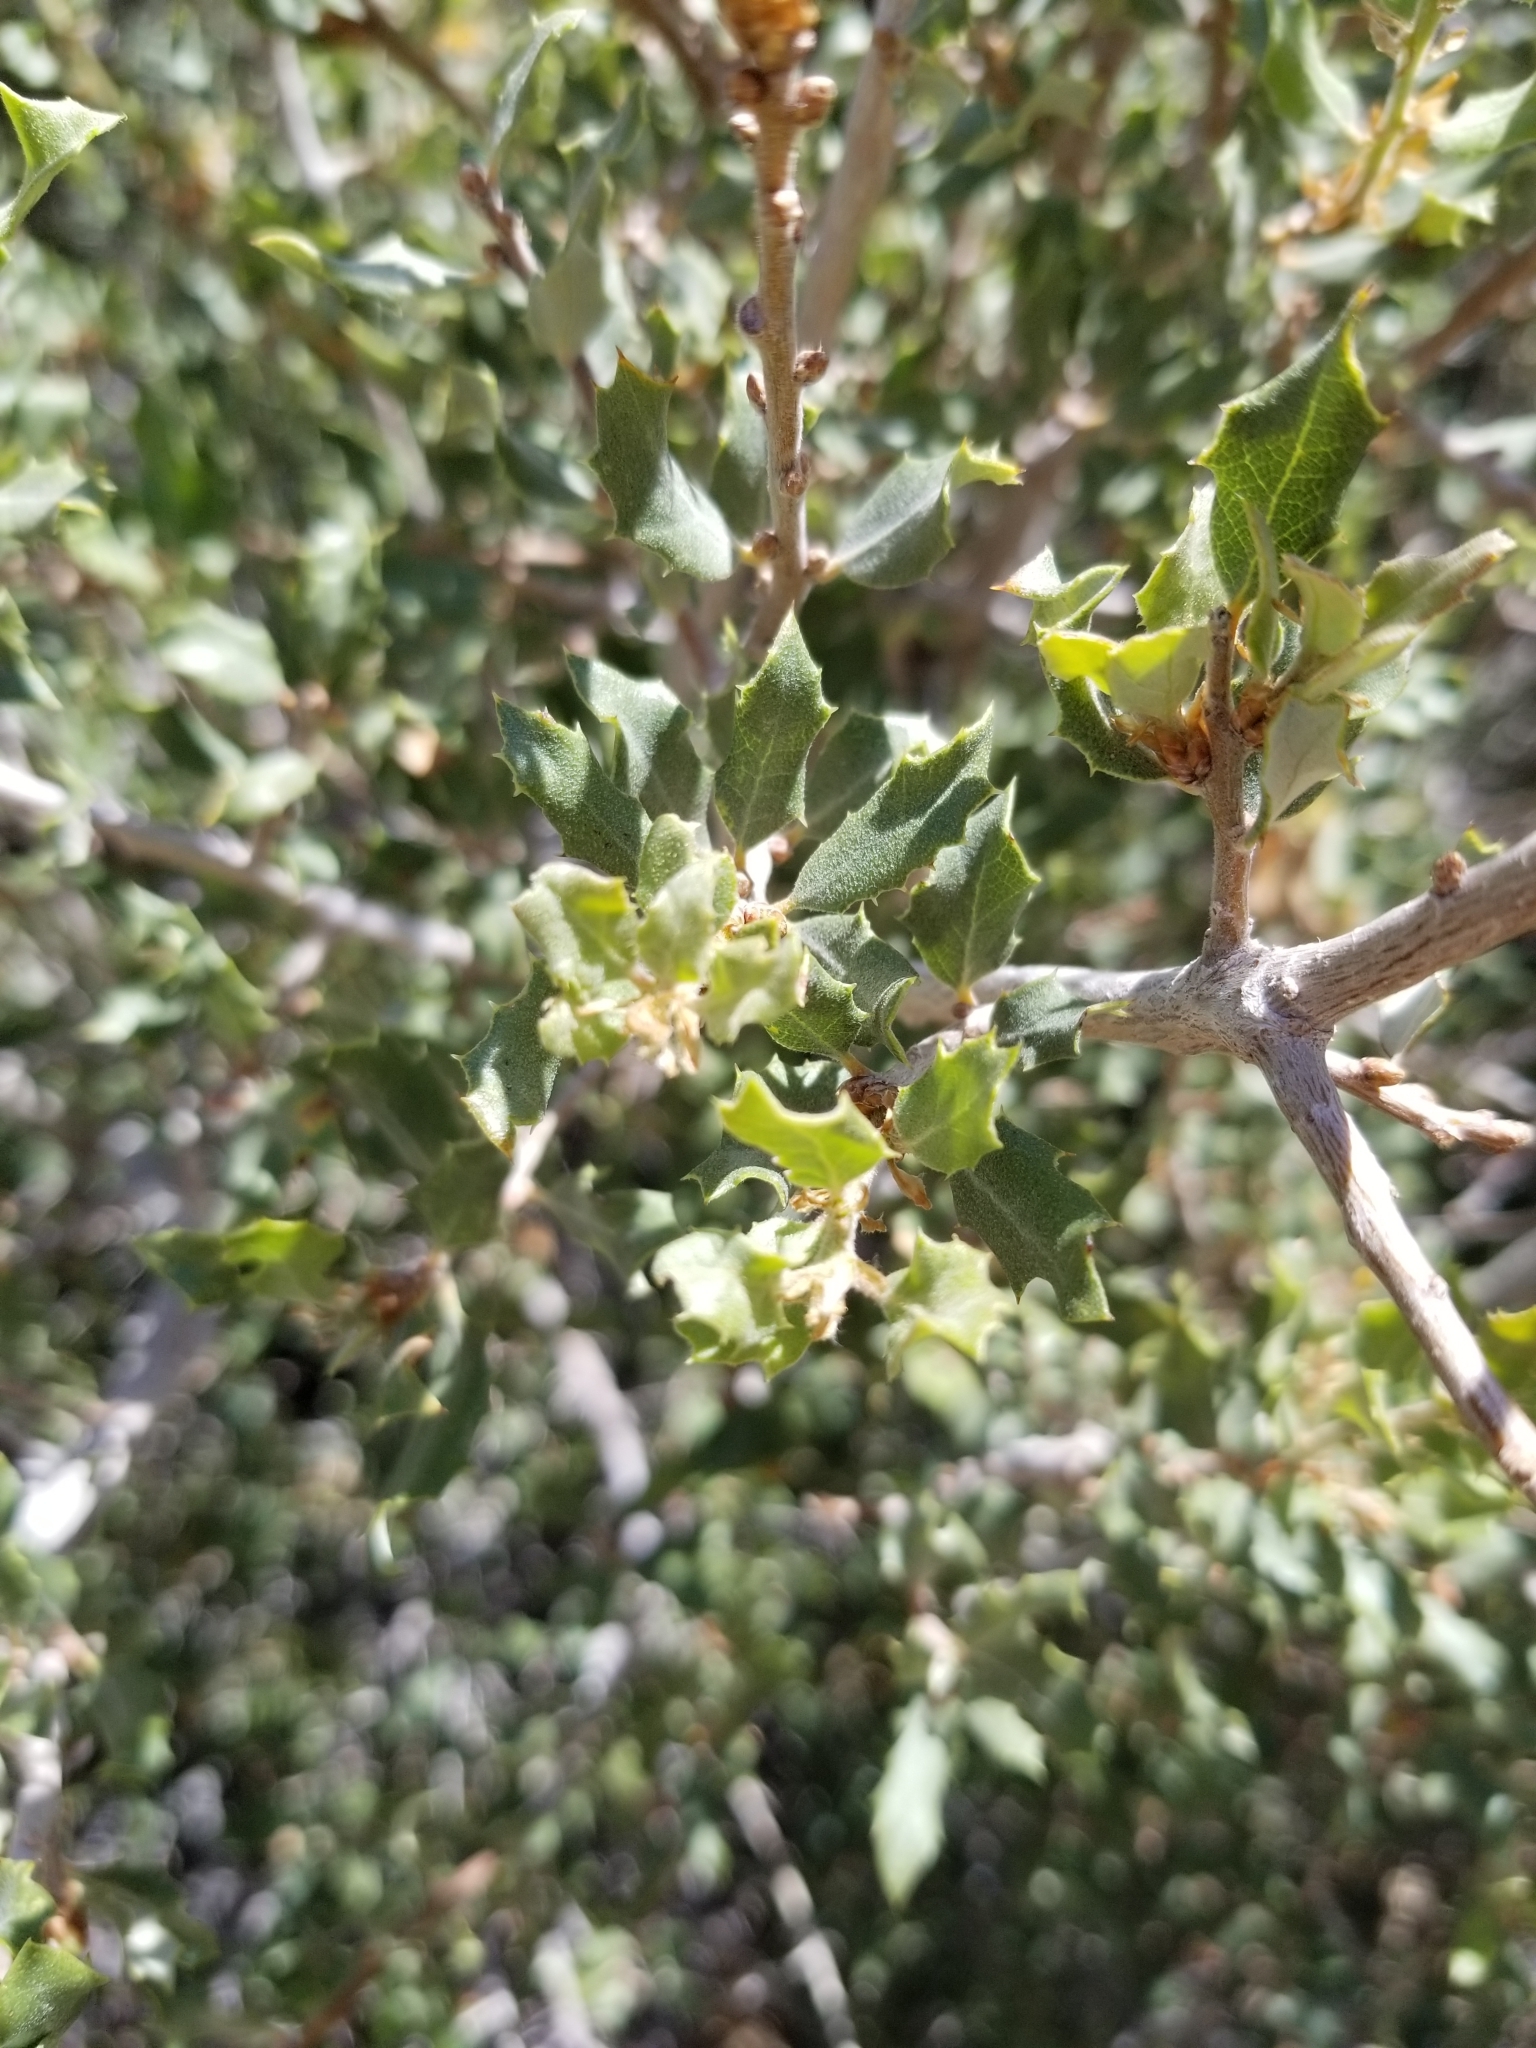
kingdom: Plantae
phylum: Tracheophyta
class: Magnoliopsida
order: Fagales
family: Fagaceae
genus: Quercus
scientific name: Quercus cornelius-mulleri
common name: Muller oak
